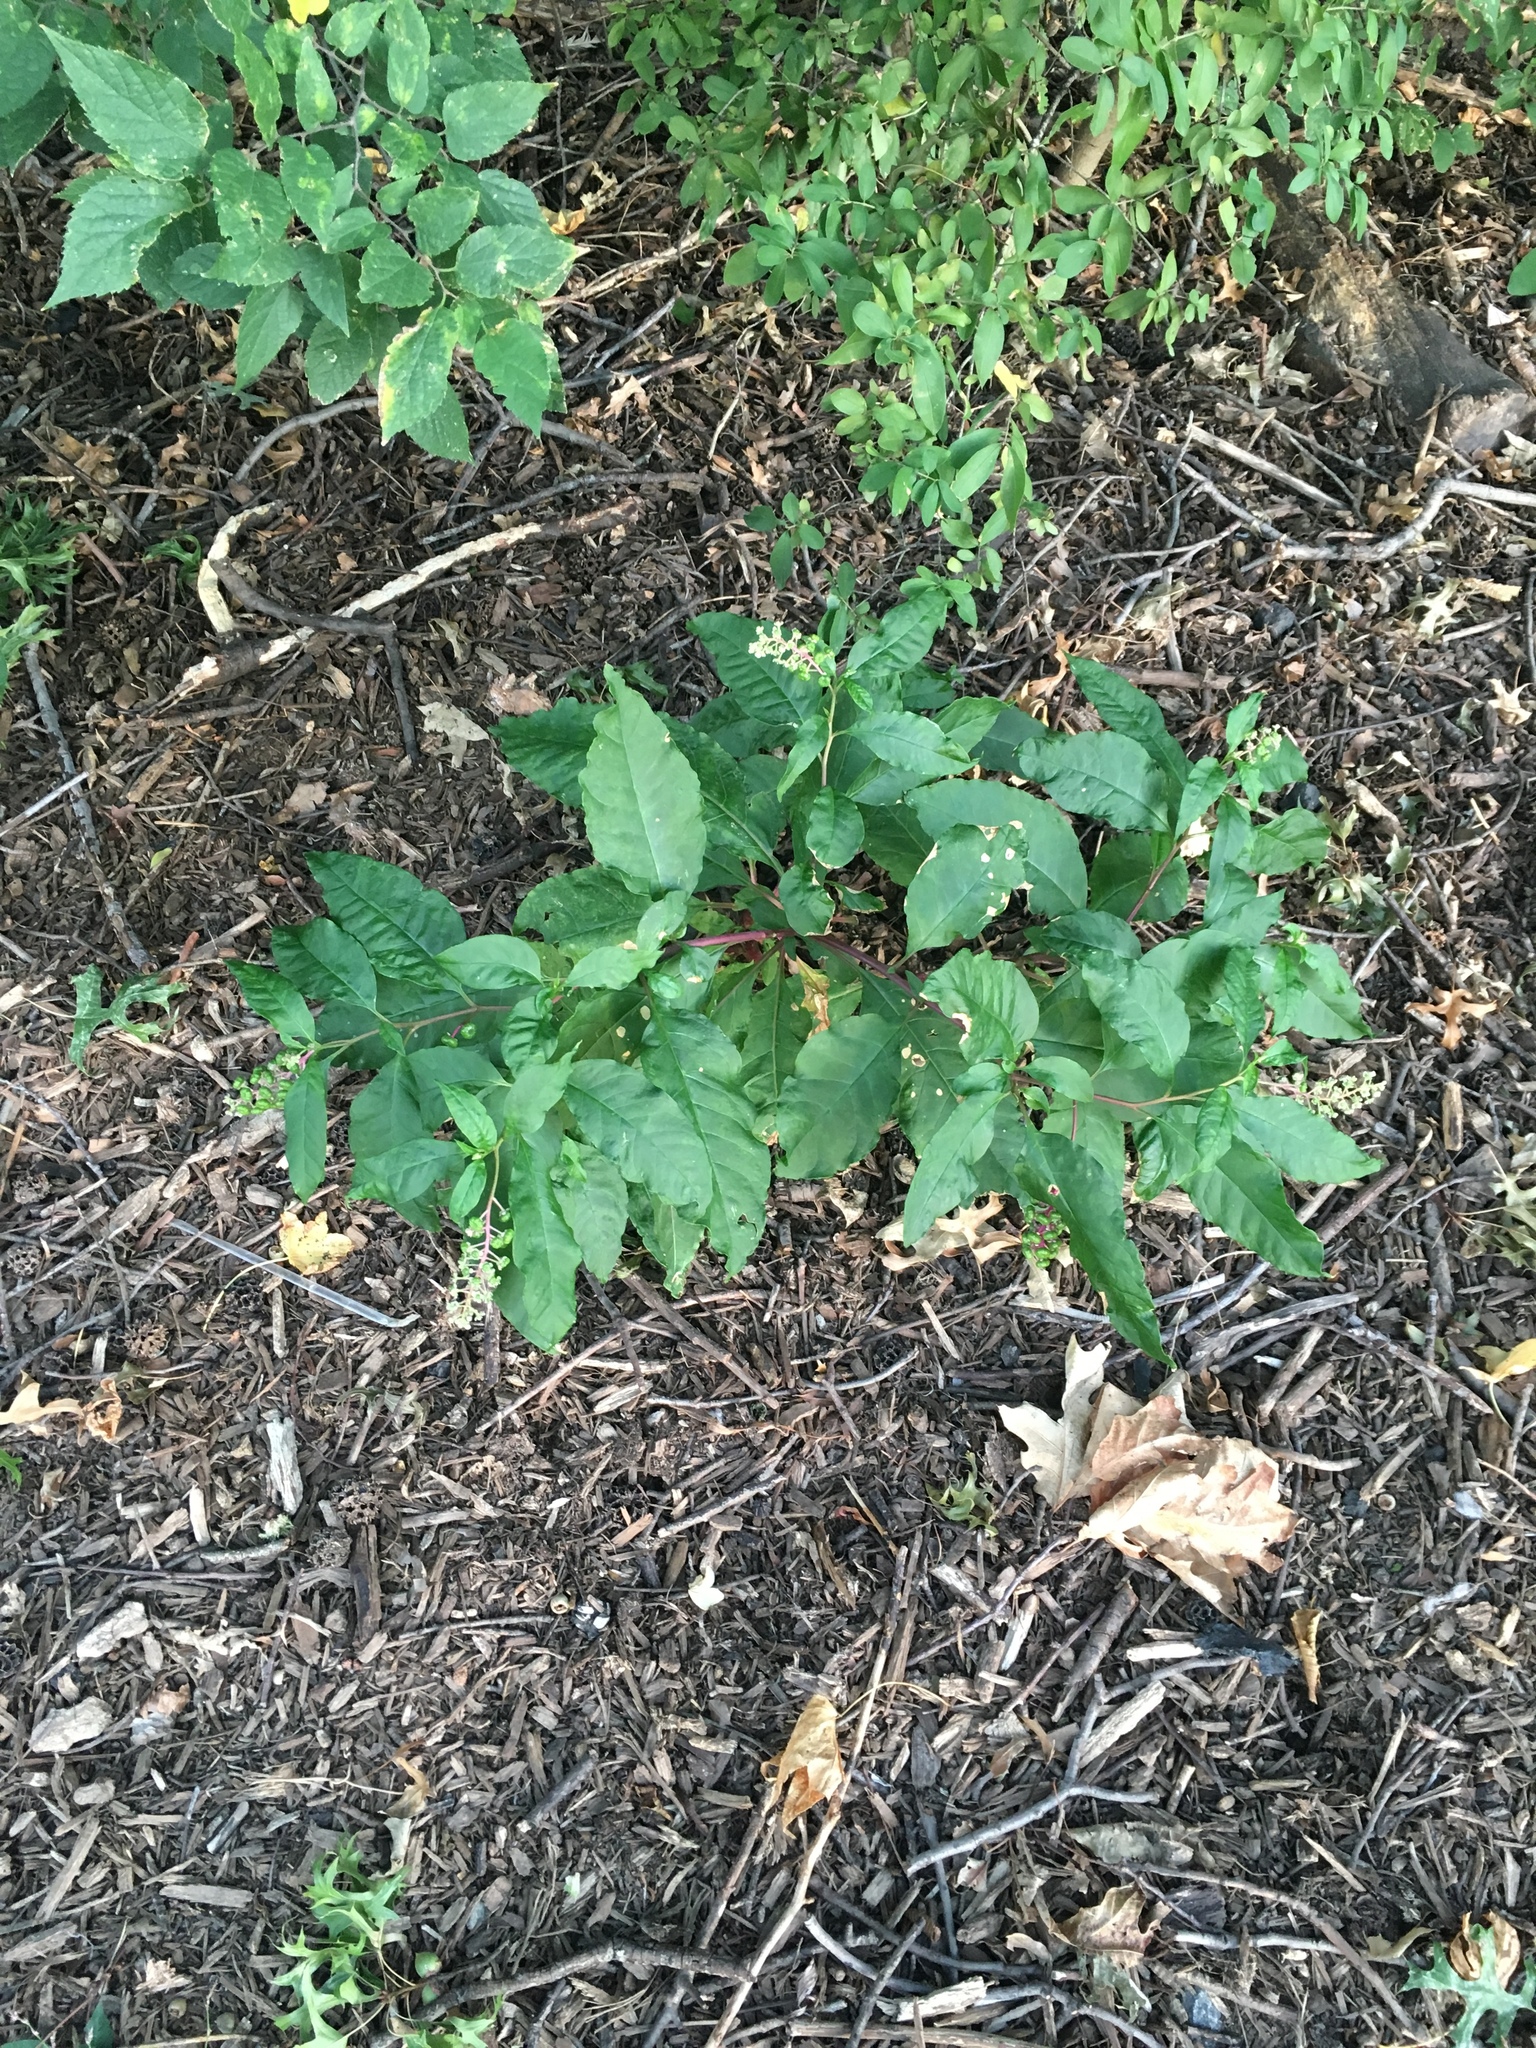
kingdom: Plantae
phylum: Tracheophyta
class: Magnoliopsida
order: Caryophyllales
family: Phytolaccaceae
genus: Phytolacca
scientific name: Phytolacca americana
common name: American pokeweed
